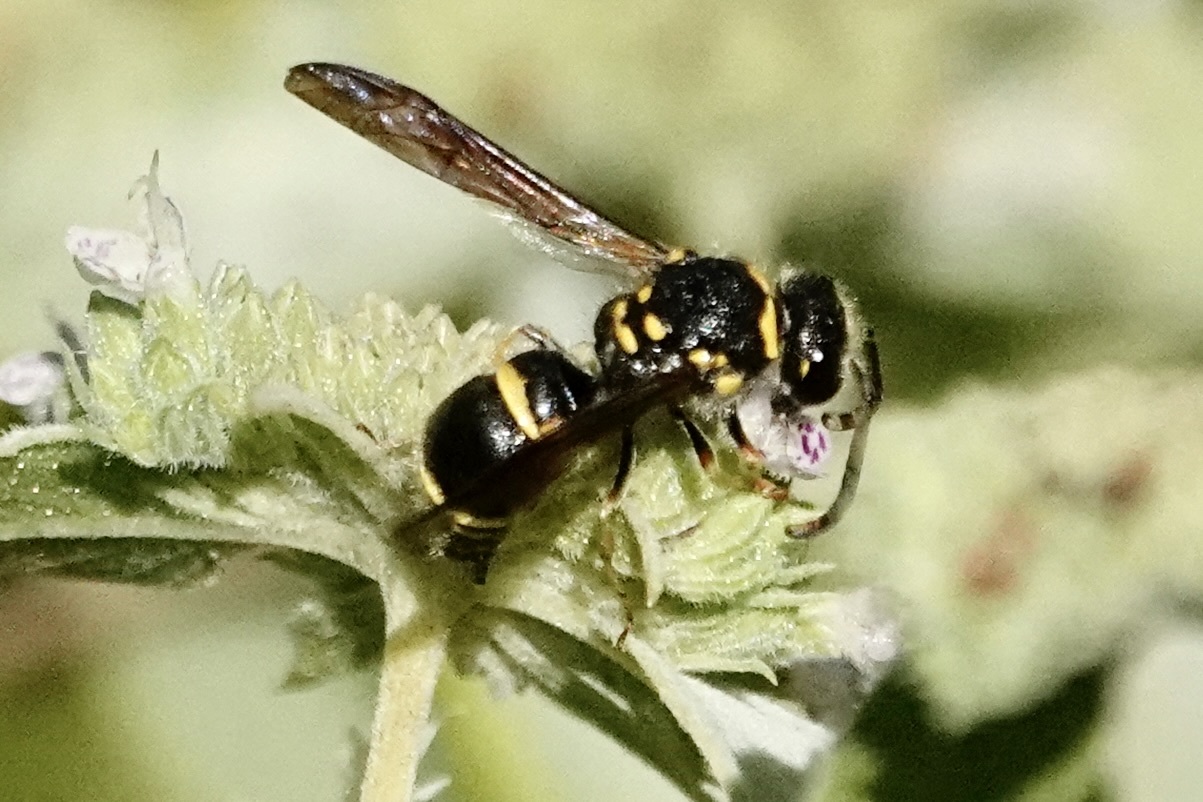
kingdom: Animalia
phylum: Arthropoda
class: Insecta
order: Hymenoptera
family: Vespidae
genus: Ancistrocerus
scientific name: Ancistrocerus campestris
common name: Smiling mason wasp
